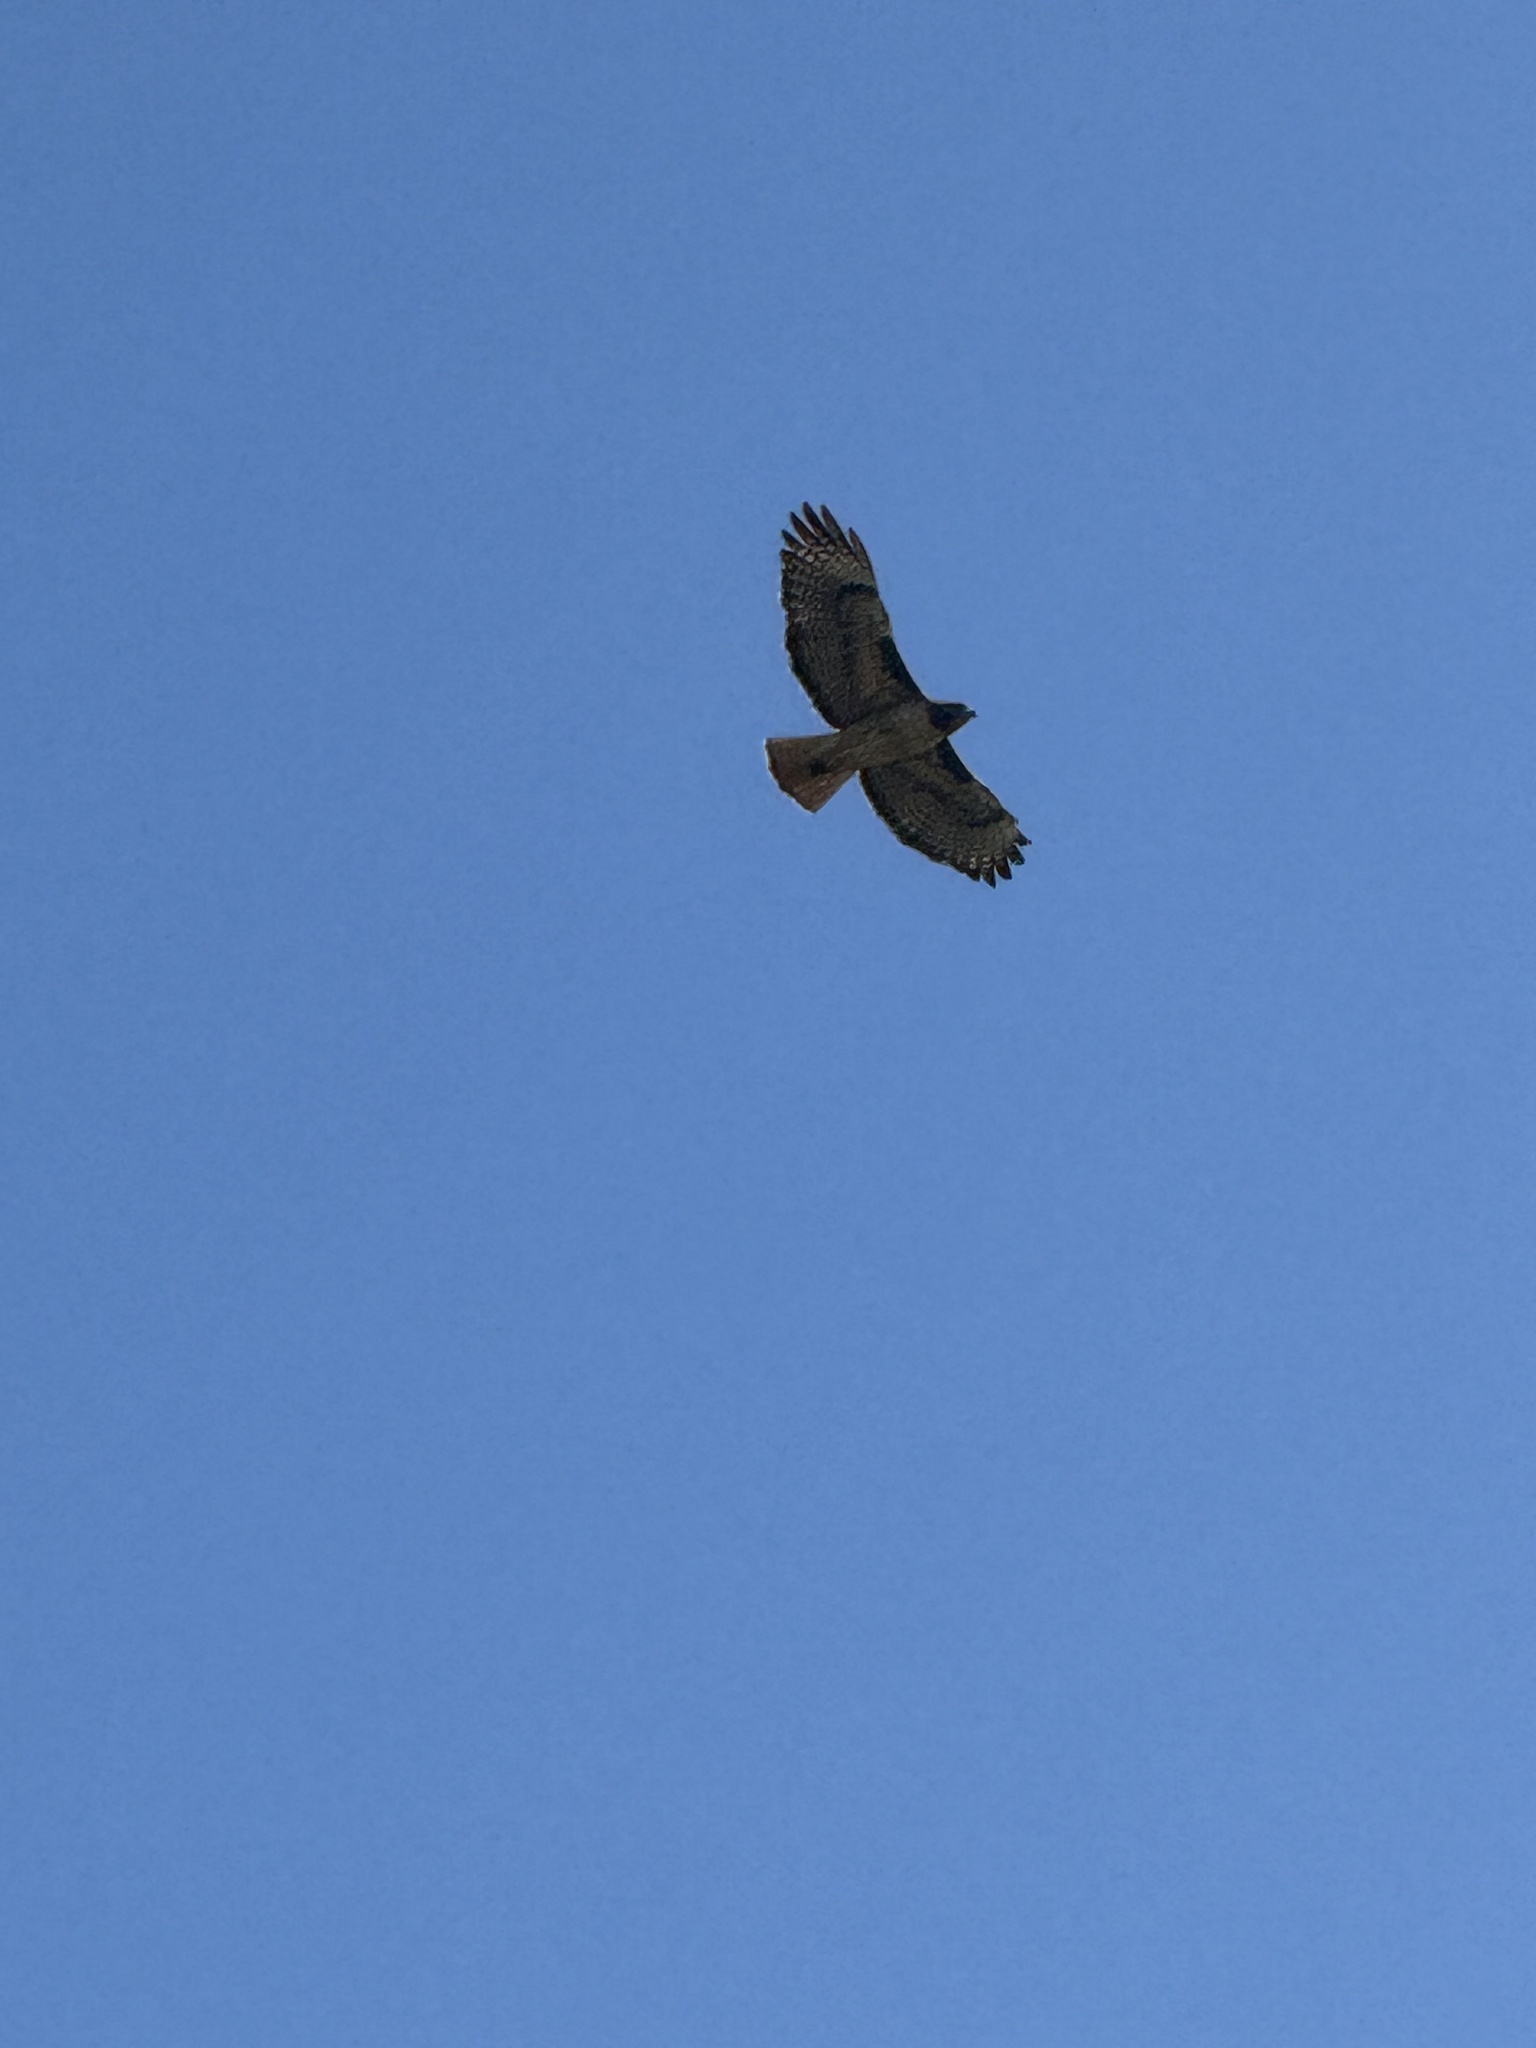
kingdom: Animalia
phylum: Chordata
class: Aves
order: Accipitriformes
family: Accipitridae
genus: Buteo
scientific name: Buteo jamaicensis
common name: Red-tailed hawk
